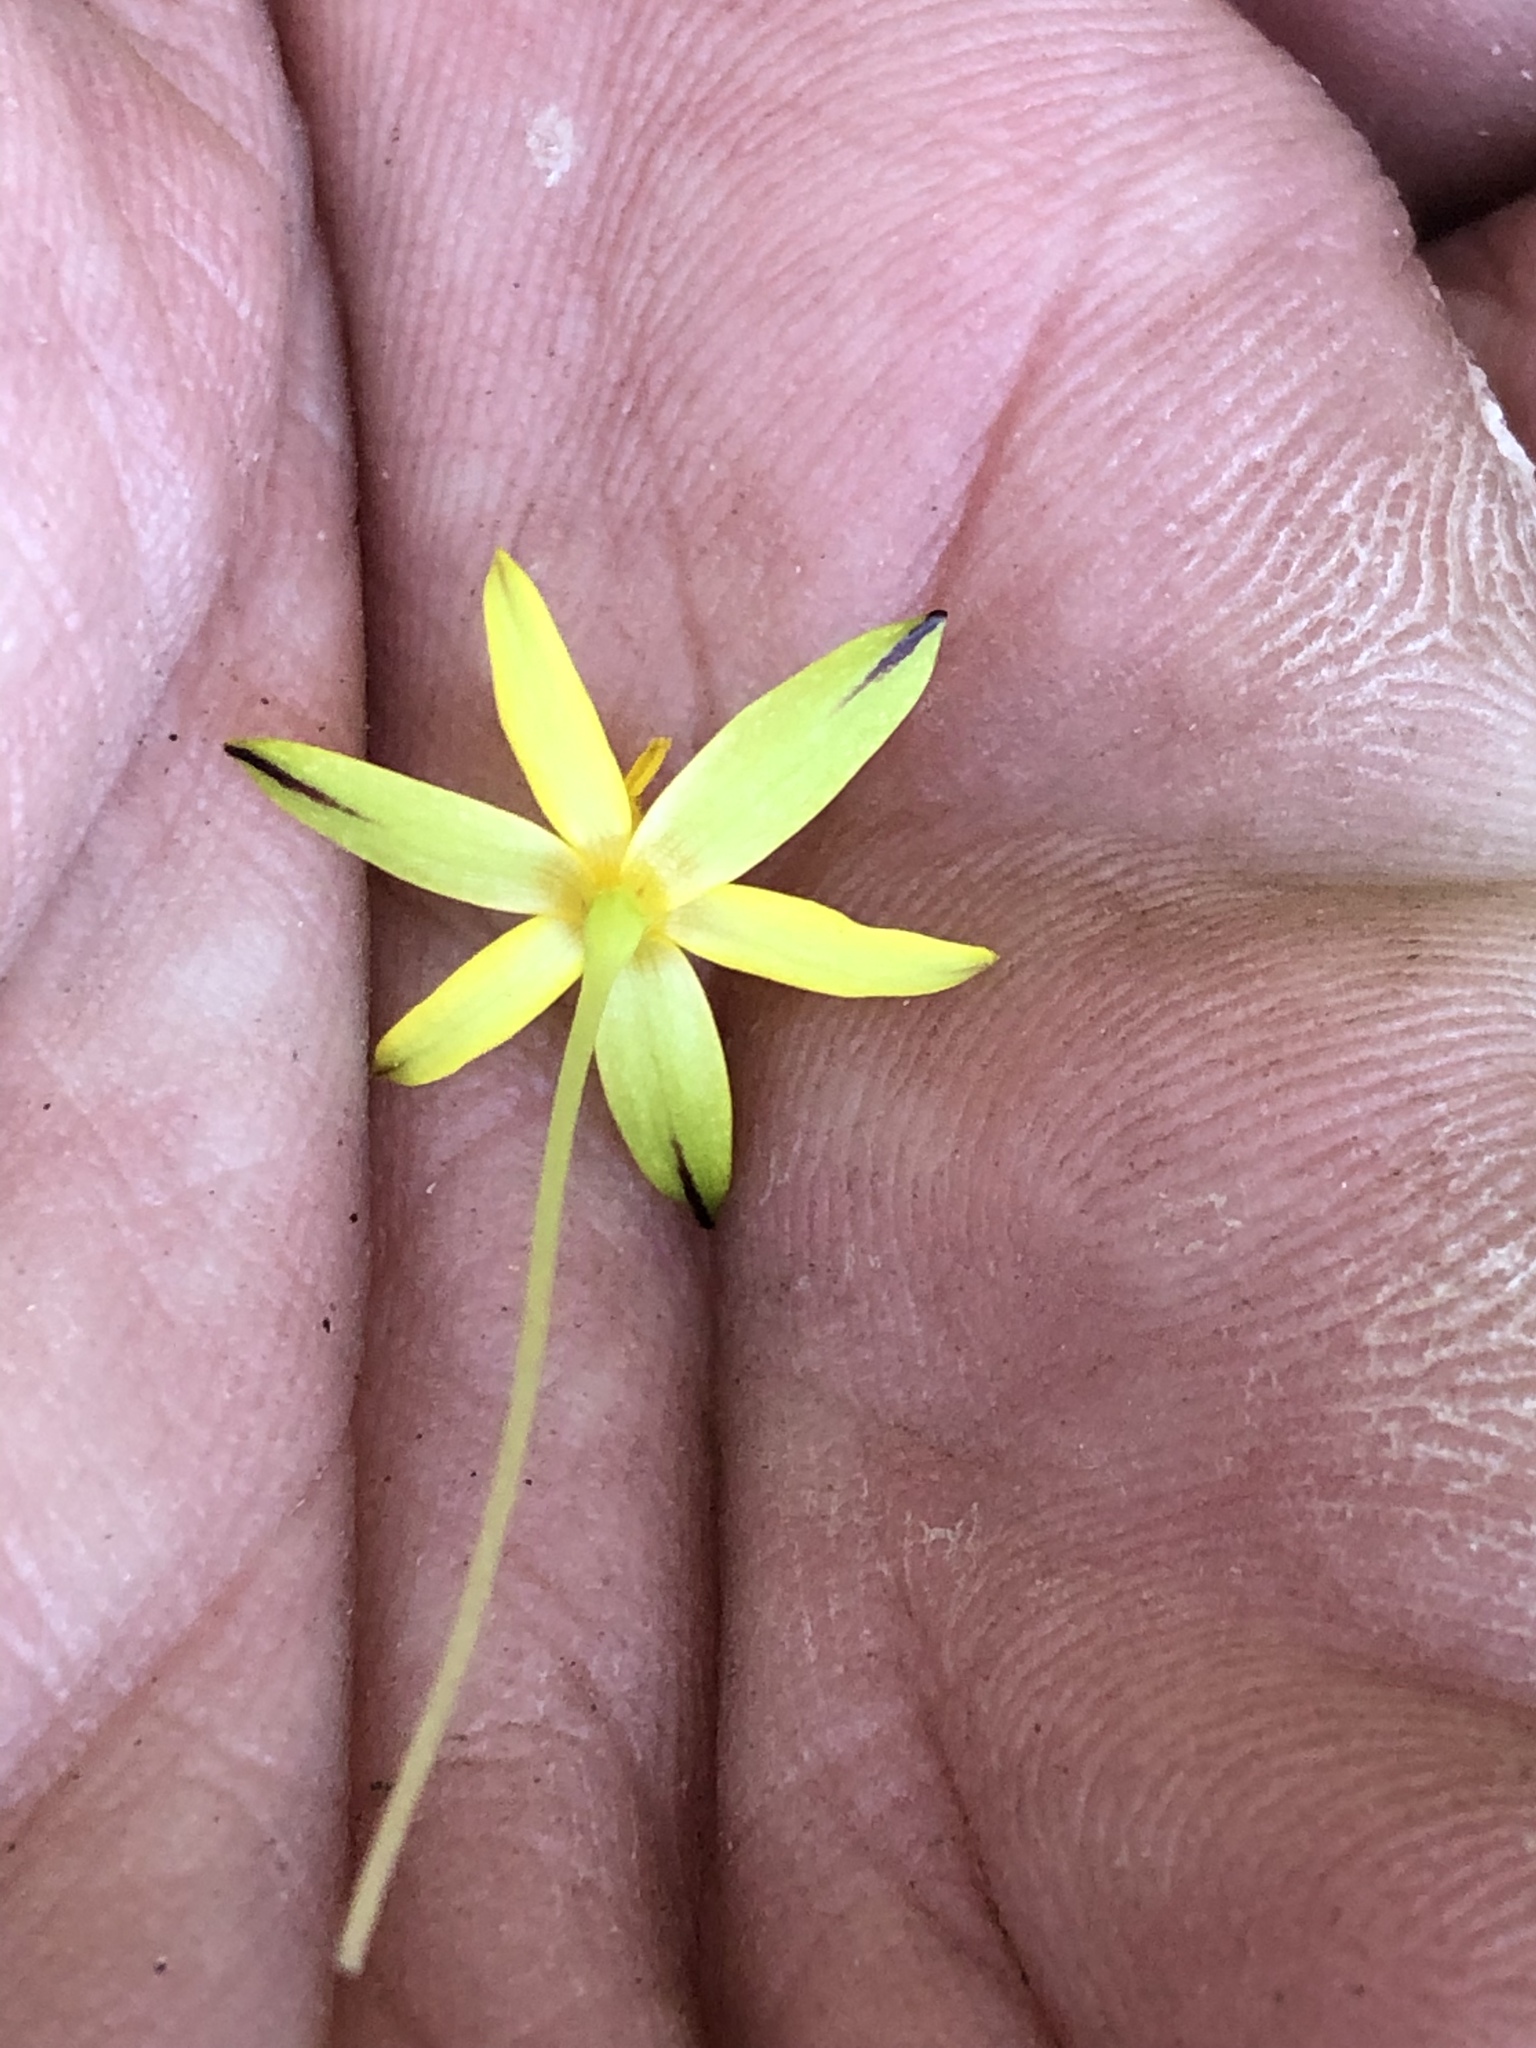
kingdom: Plantae
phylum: Tracheophyta
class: Liliopsida
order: Asparagales
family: Hypoxidaceae
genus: Pauridia
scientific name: Pauridia maryae
